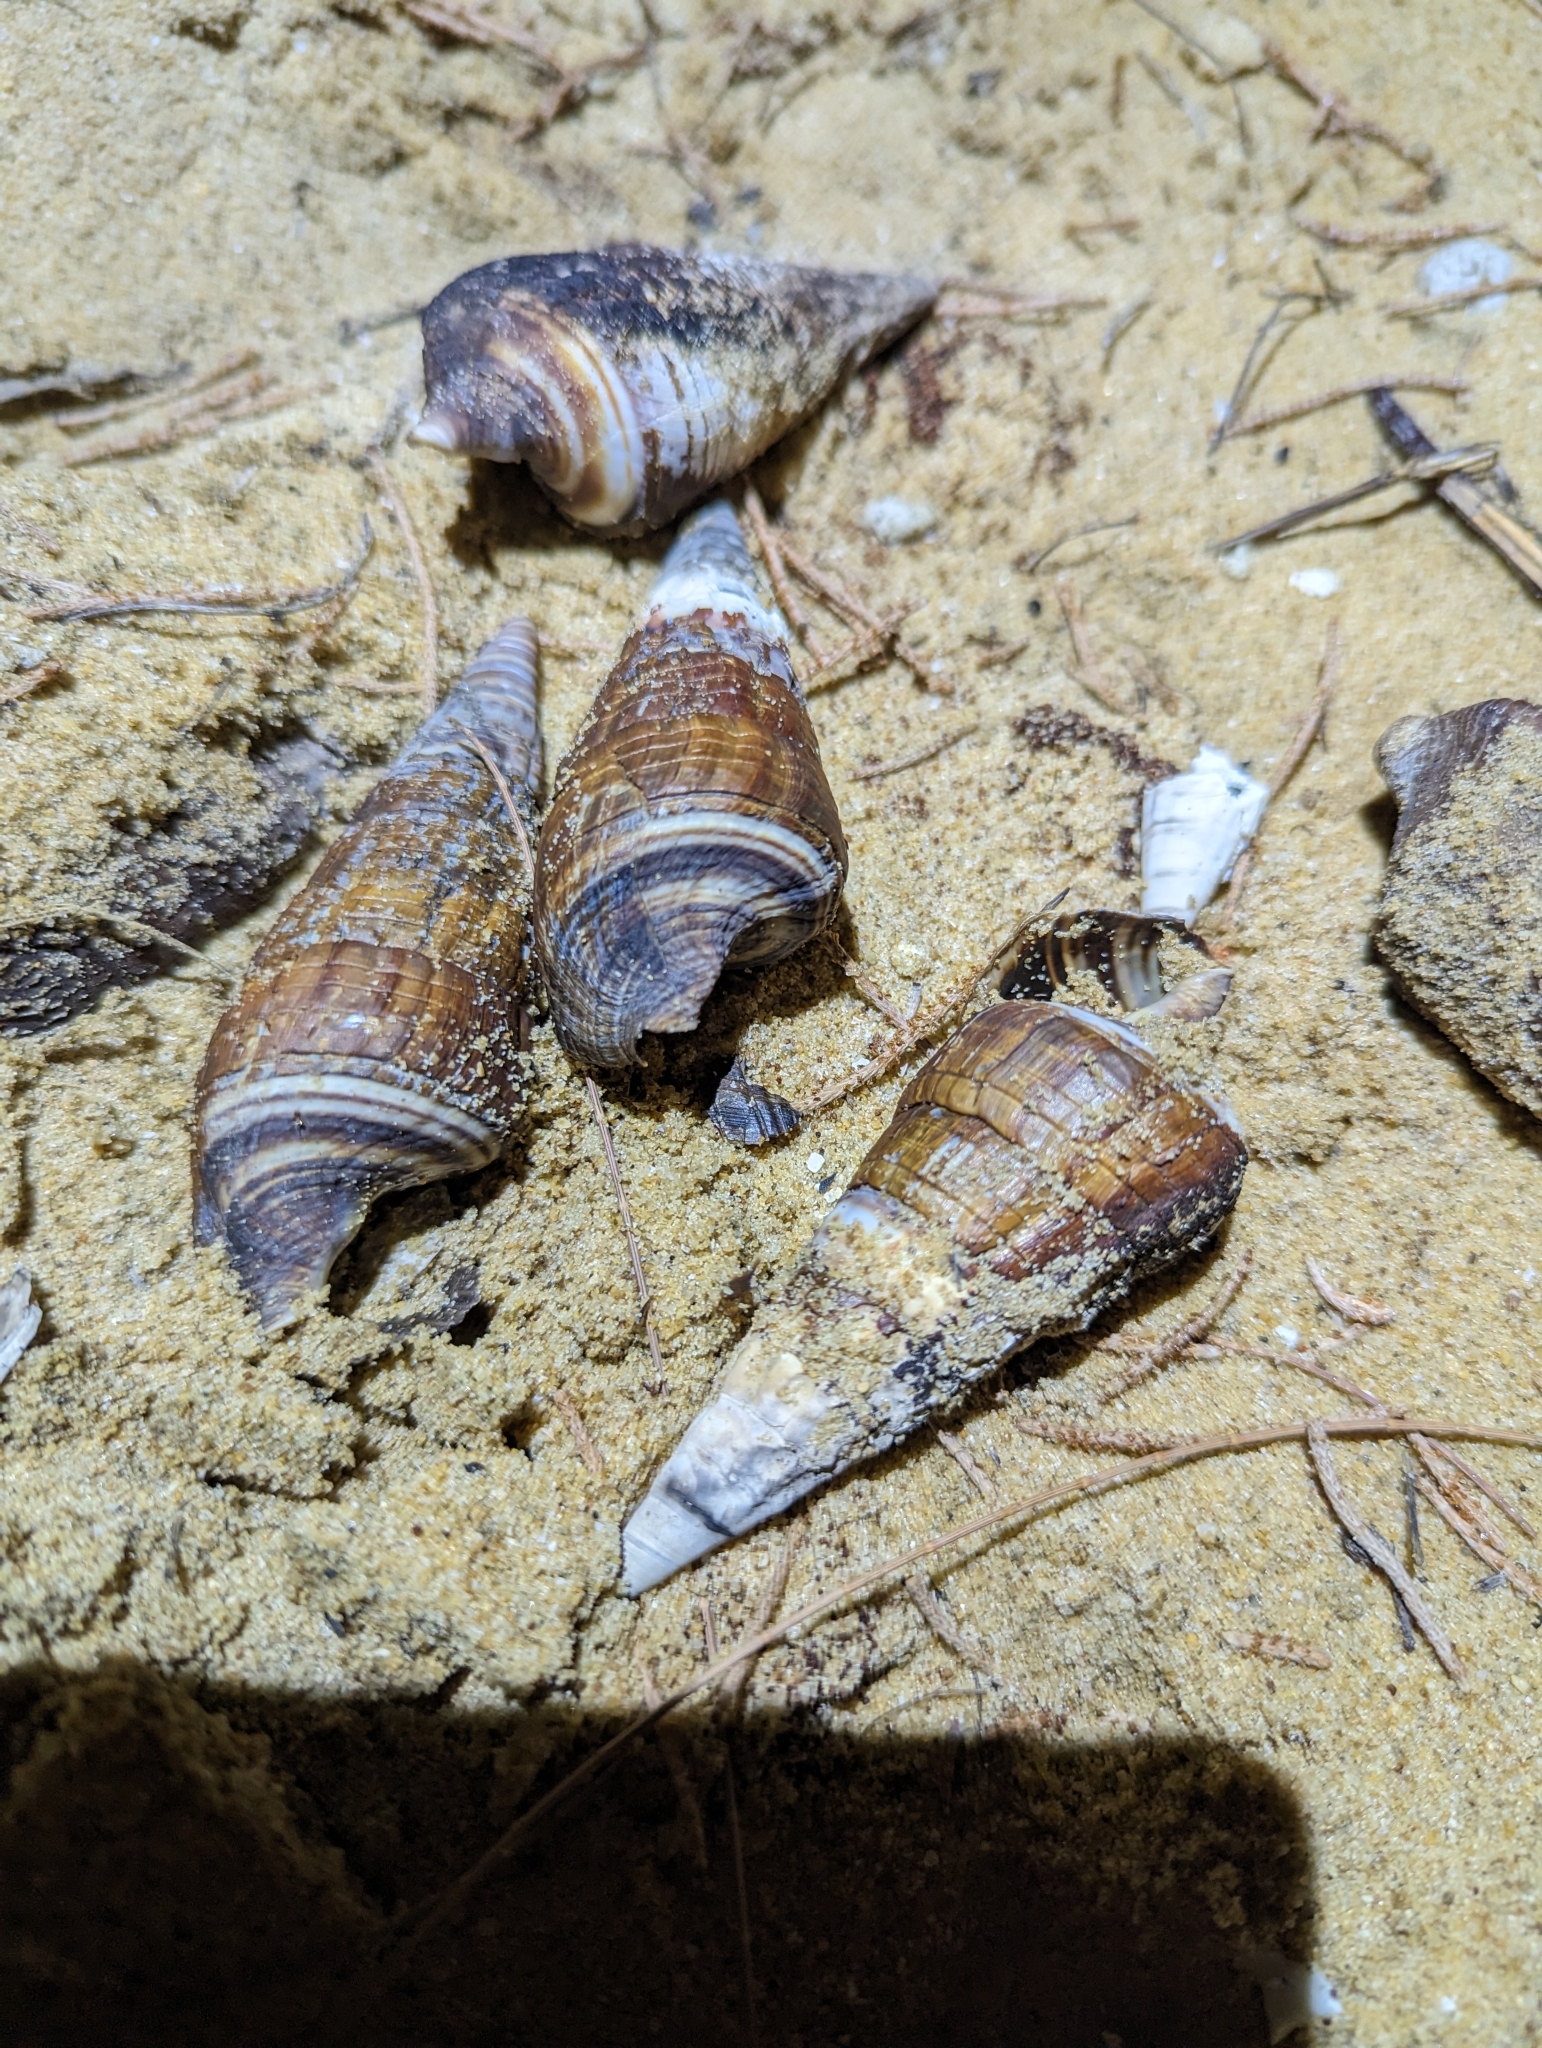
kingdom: Animalia
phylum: Mollusca
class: Gastropoda
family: Potamididae
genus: Terebralia
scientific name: Terebralia palustris
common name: Mangrove whelk
